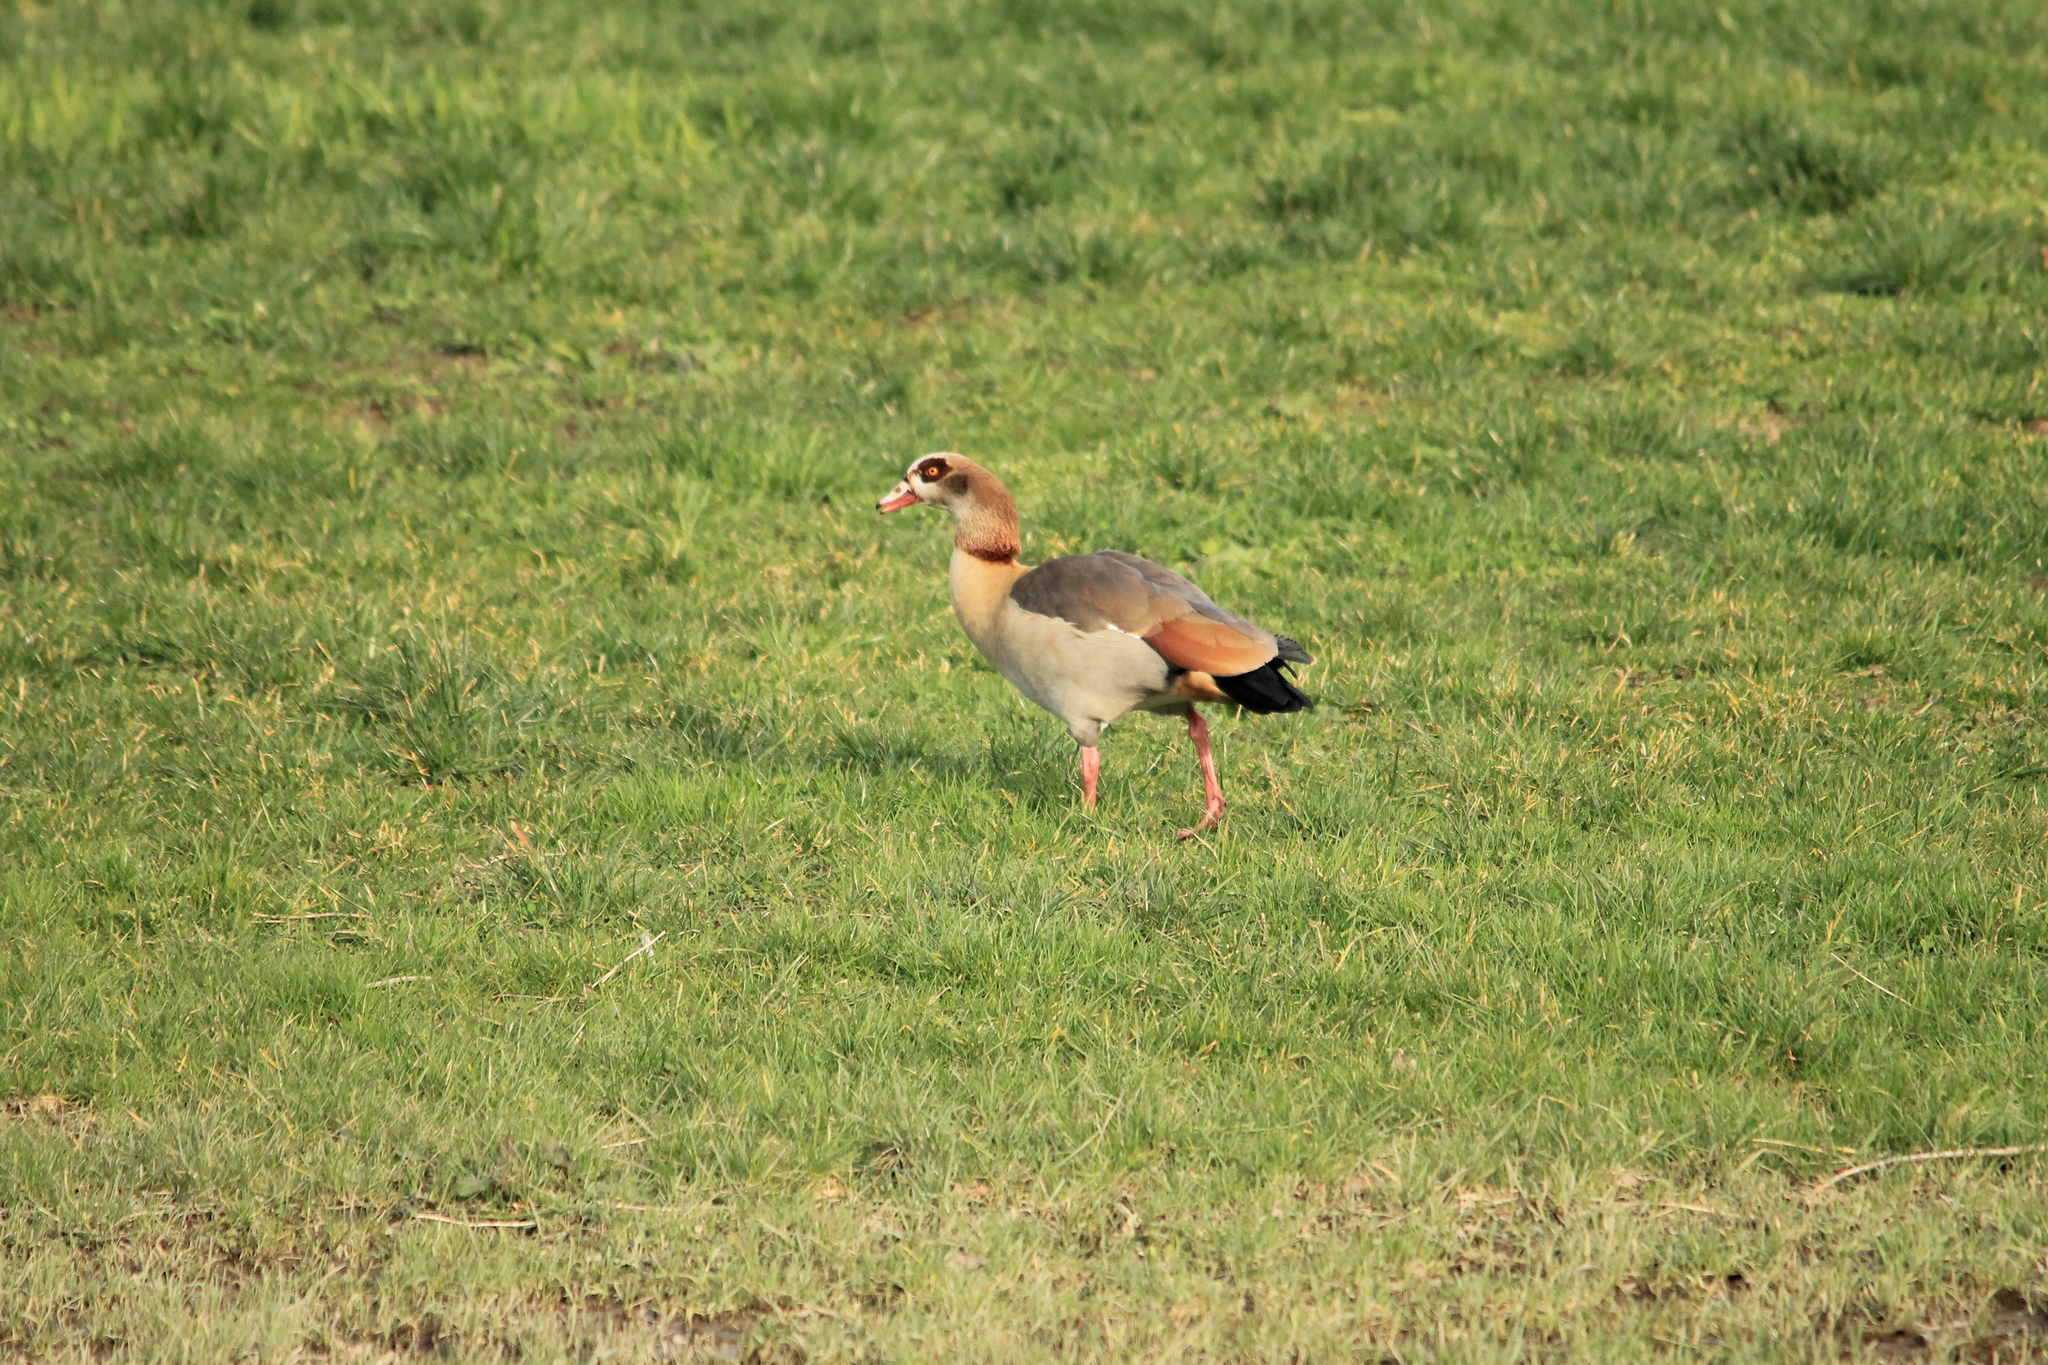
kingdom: Animalia
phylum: Chordata
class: Aves
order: Anseriformes
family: Anatidae
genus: Alopochen
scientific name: Alopochen aegyptiaca
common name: Egyptian goose
